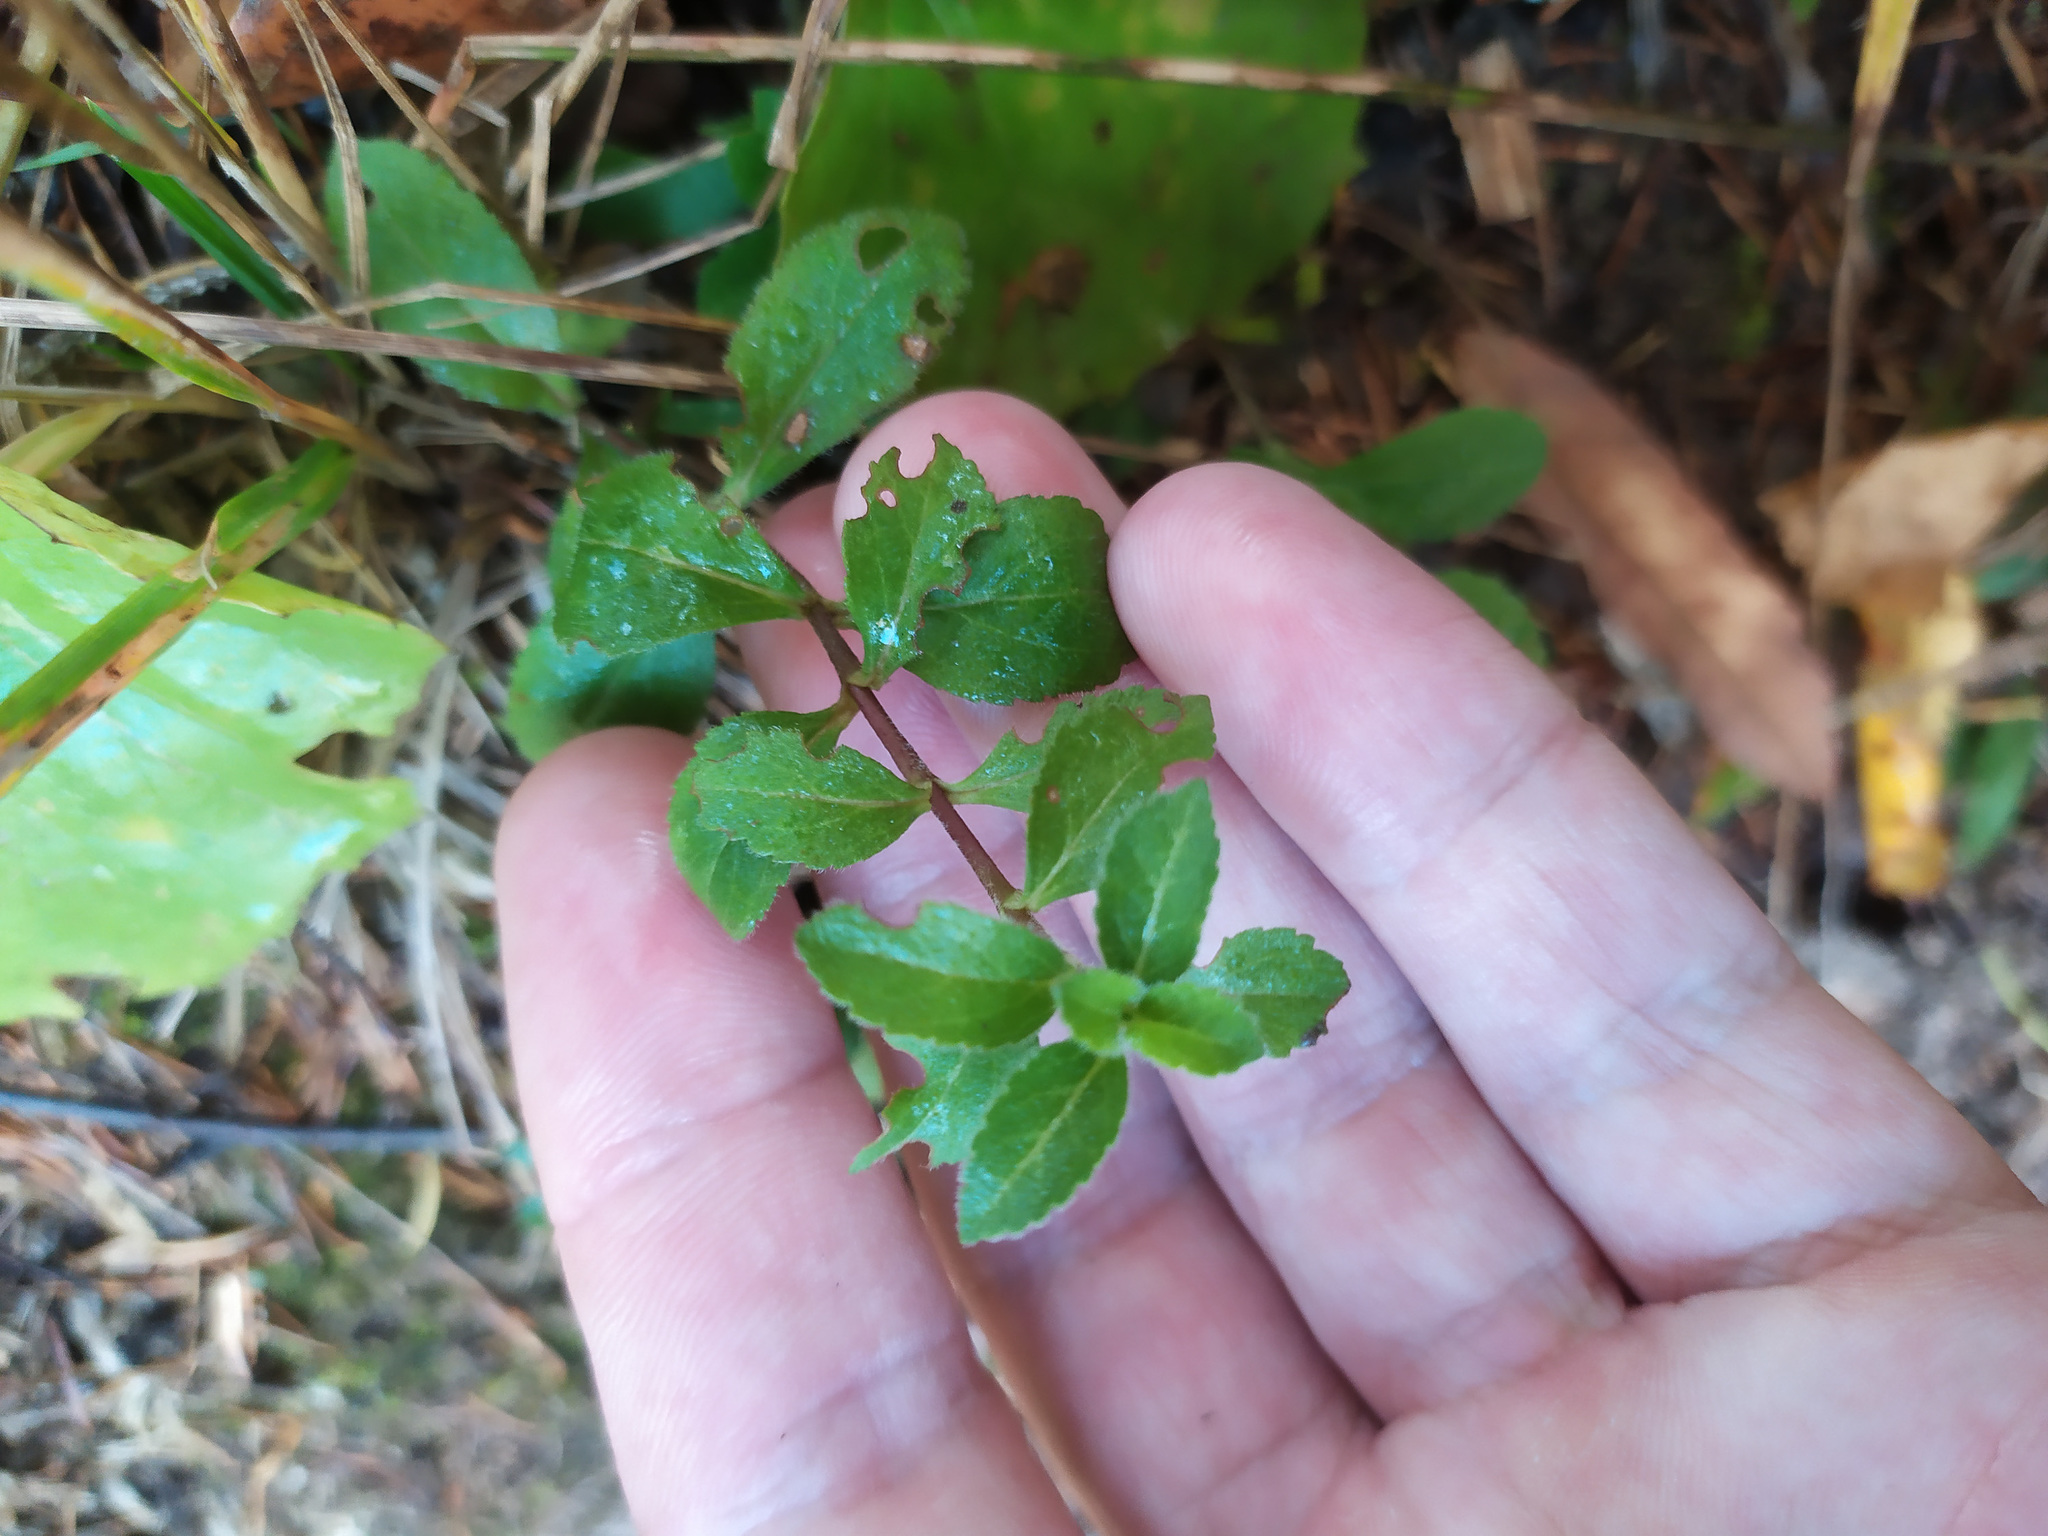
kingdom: Plantae
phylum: Tracheophyta
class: Magnoliopsida
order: Lamiales
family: Plantaginaceae
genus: Veronica
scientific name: Veronica officinalis
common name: Common speedwell
